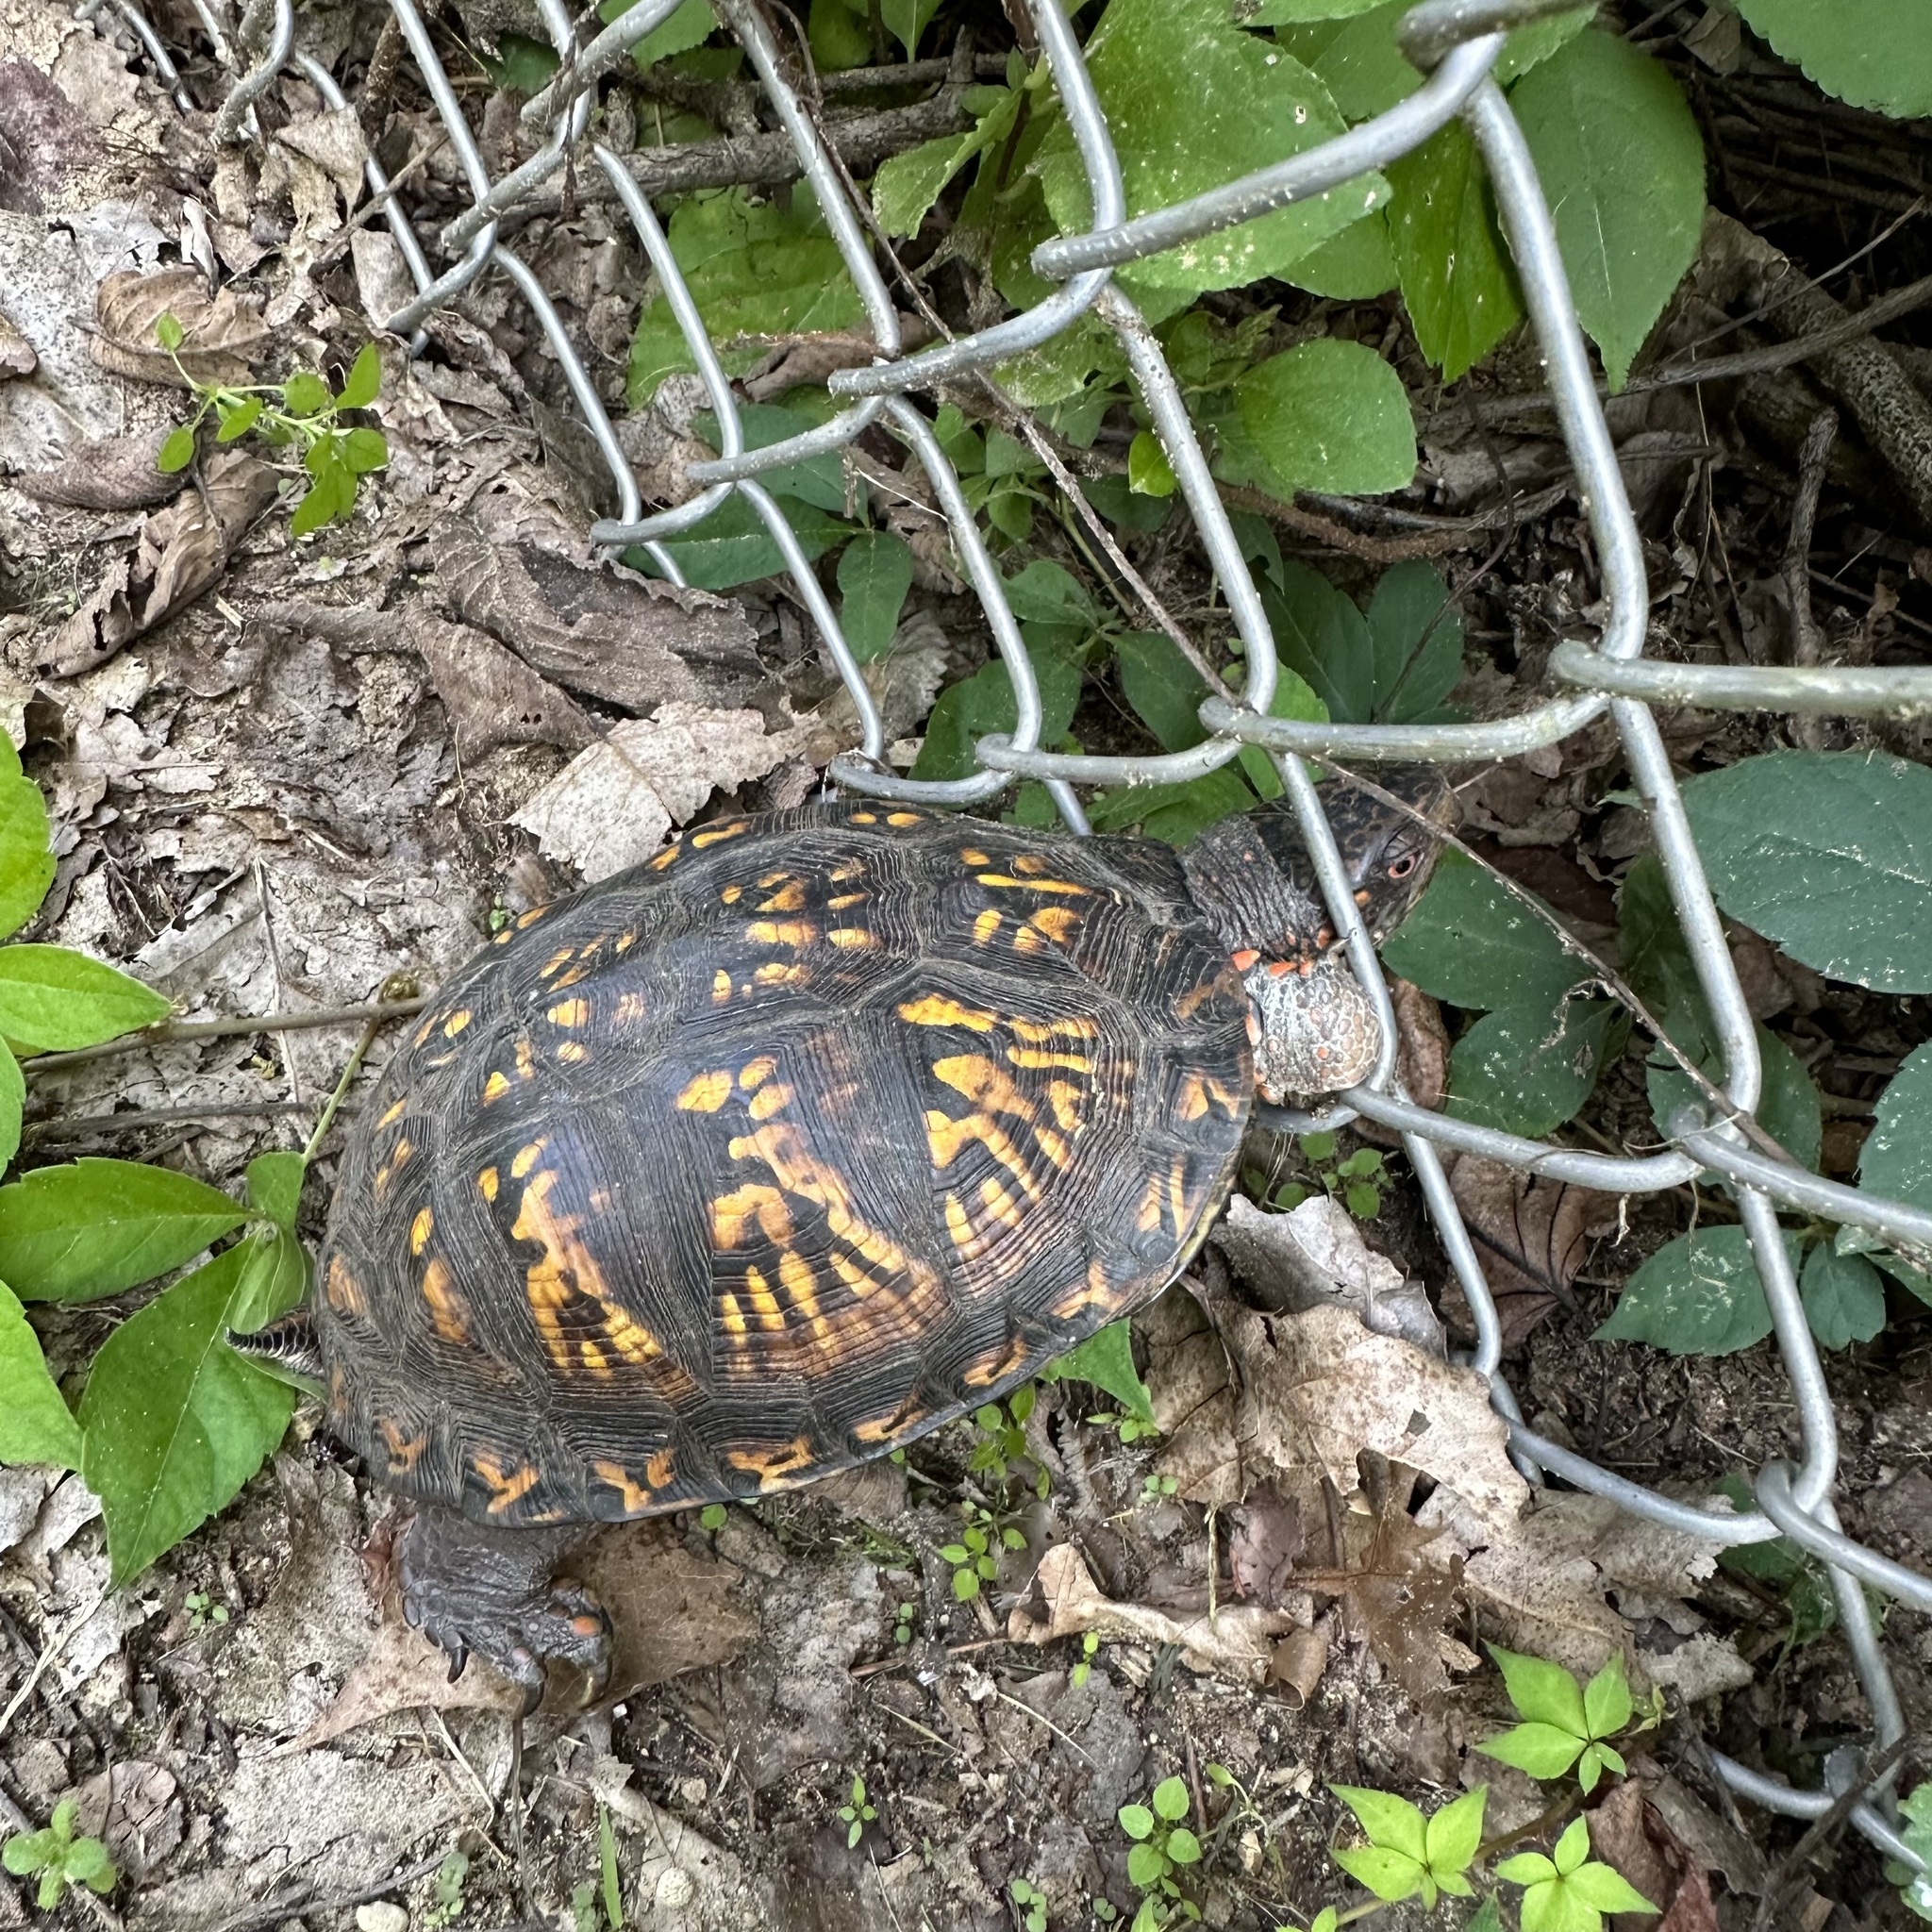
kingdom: Animalia
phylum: Chordata
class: Testudines
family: Emydidae
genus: Terrapene
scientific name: Terrapene carolina
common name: Common box turtle
